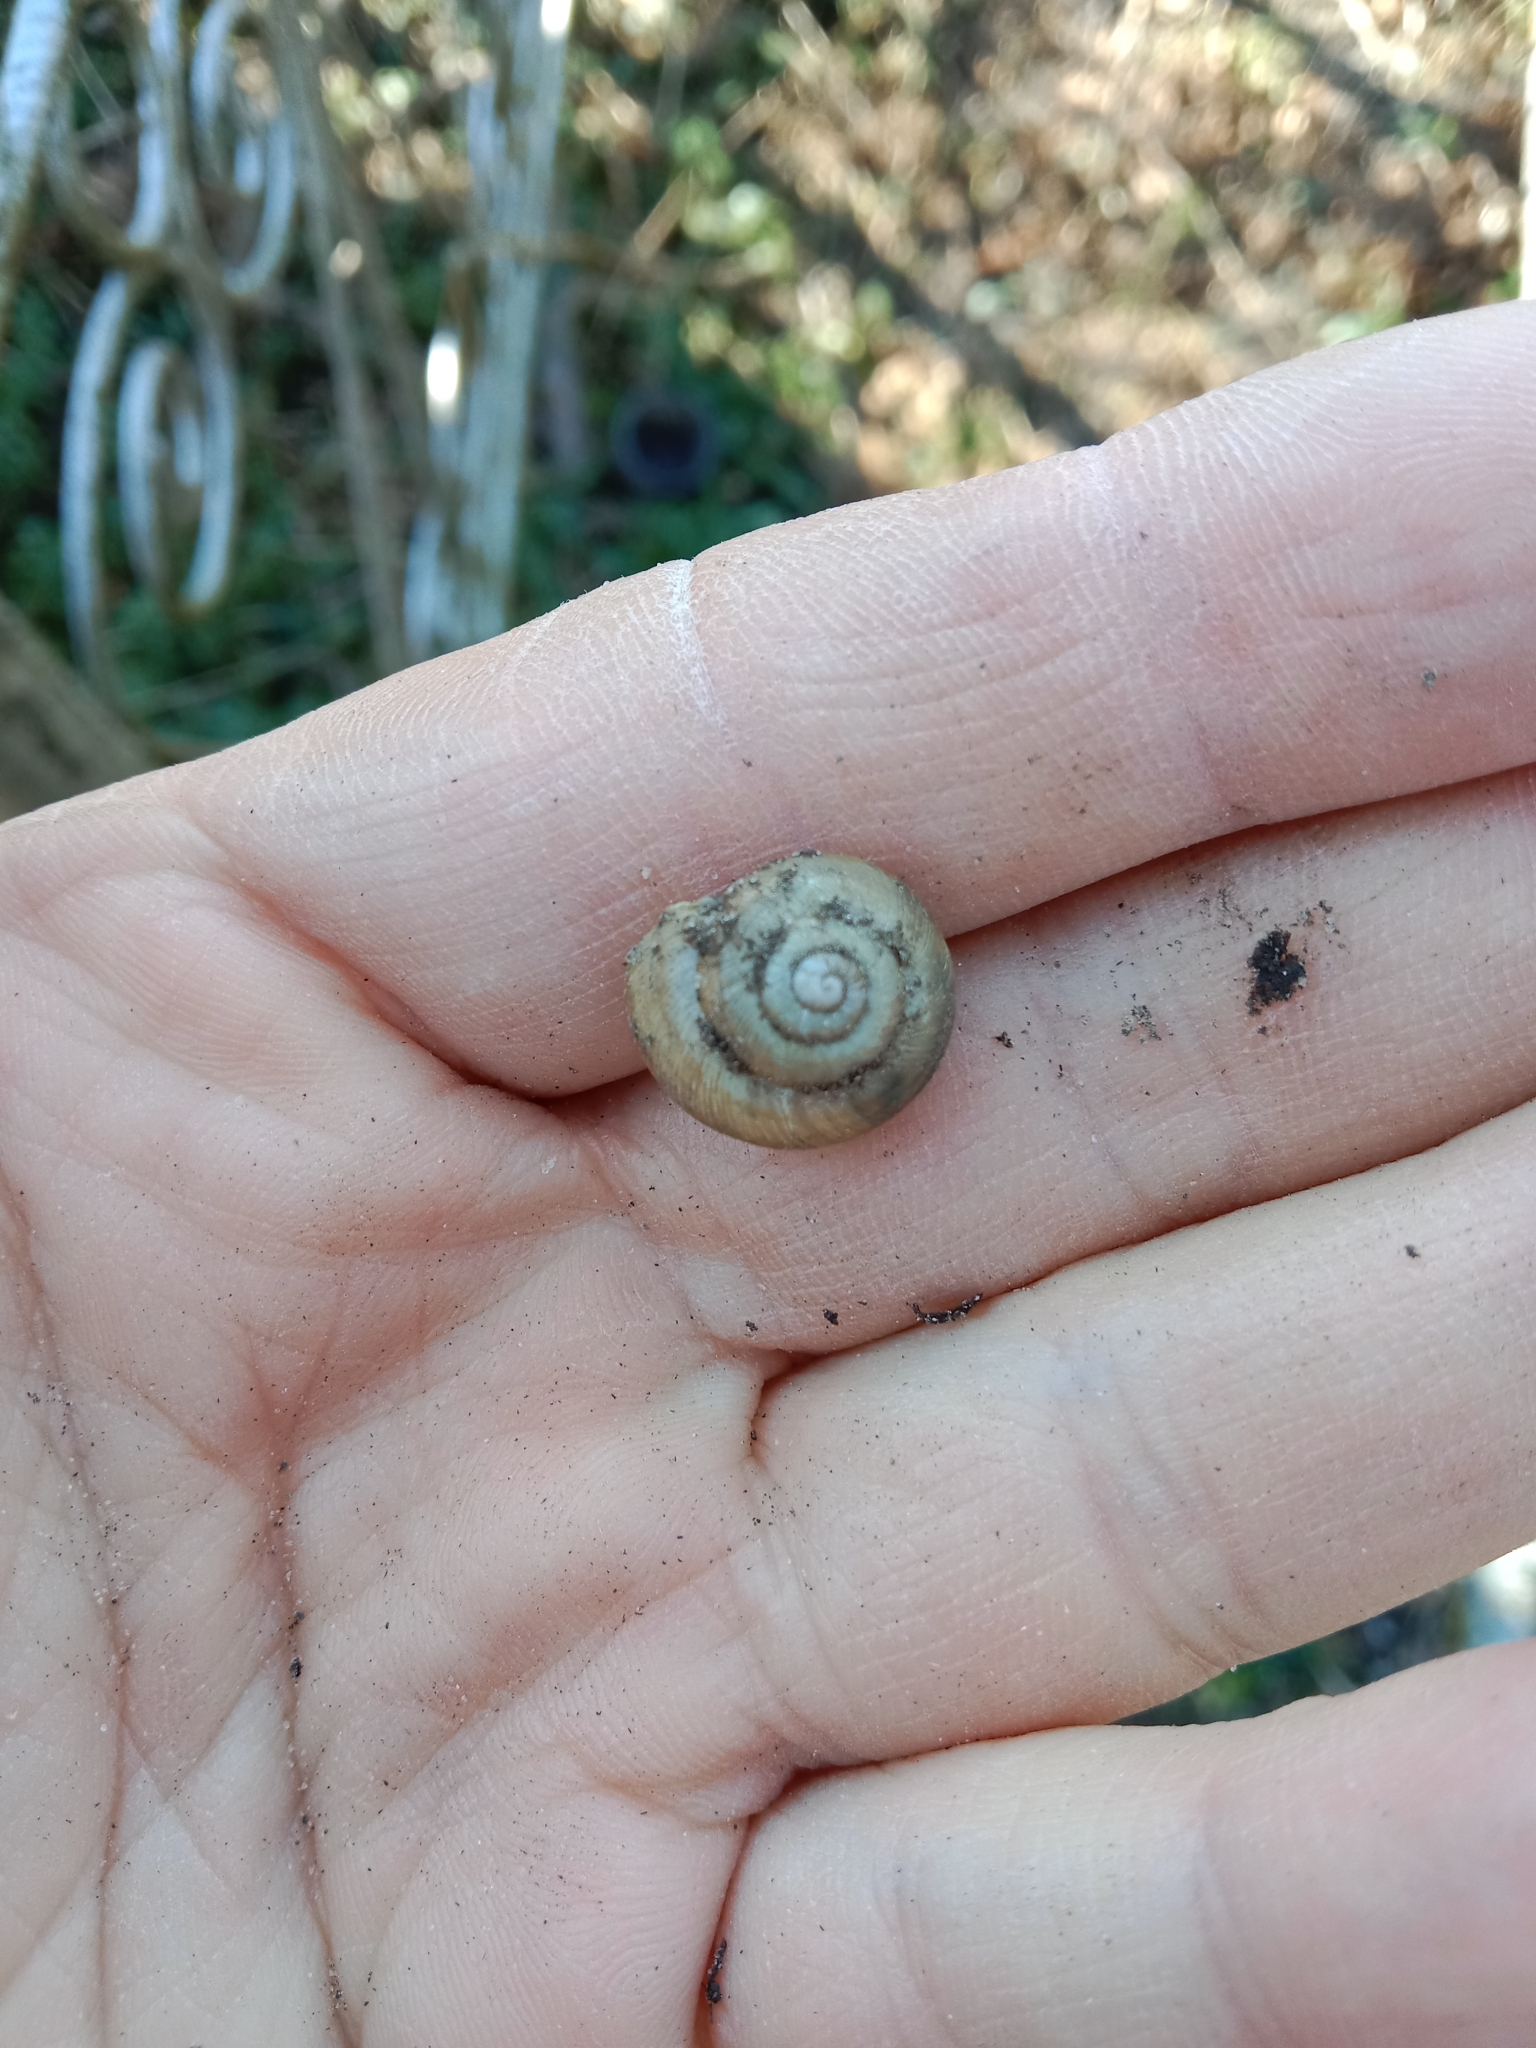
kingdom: Animalia
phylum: Mollusca
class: Gastropoda
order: Stylommatophora
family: Helicidae
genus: Caucasotachea
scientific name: Caucasotachea vindobonensis
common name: European helicid land snail
